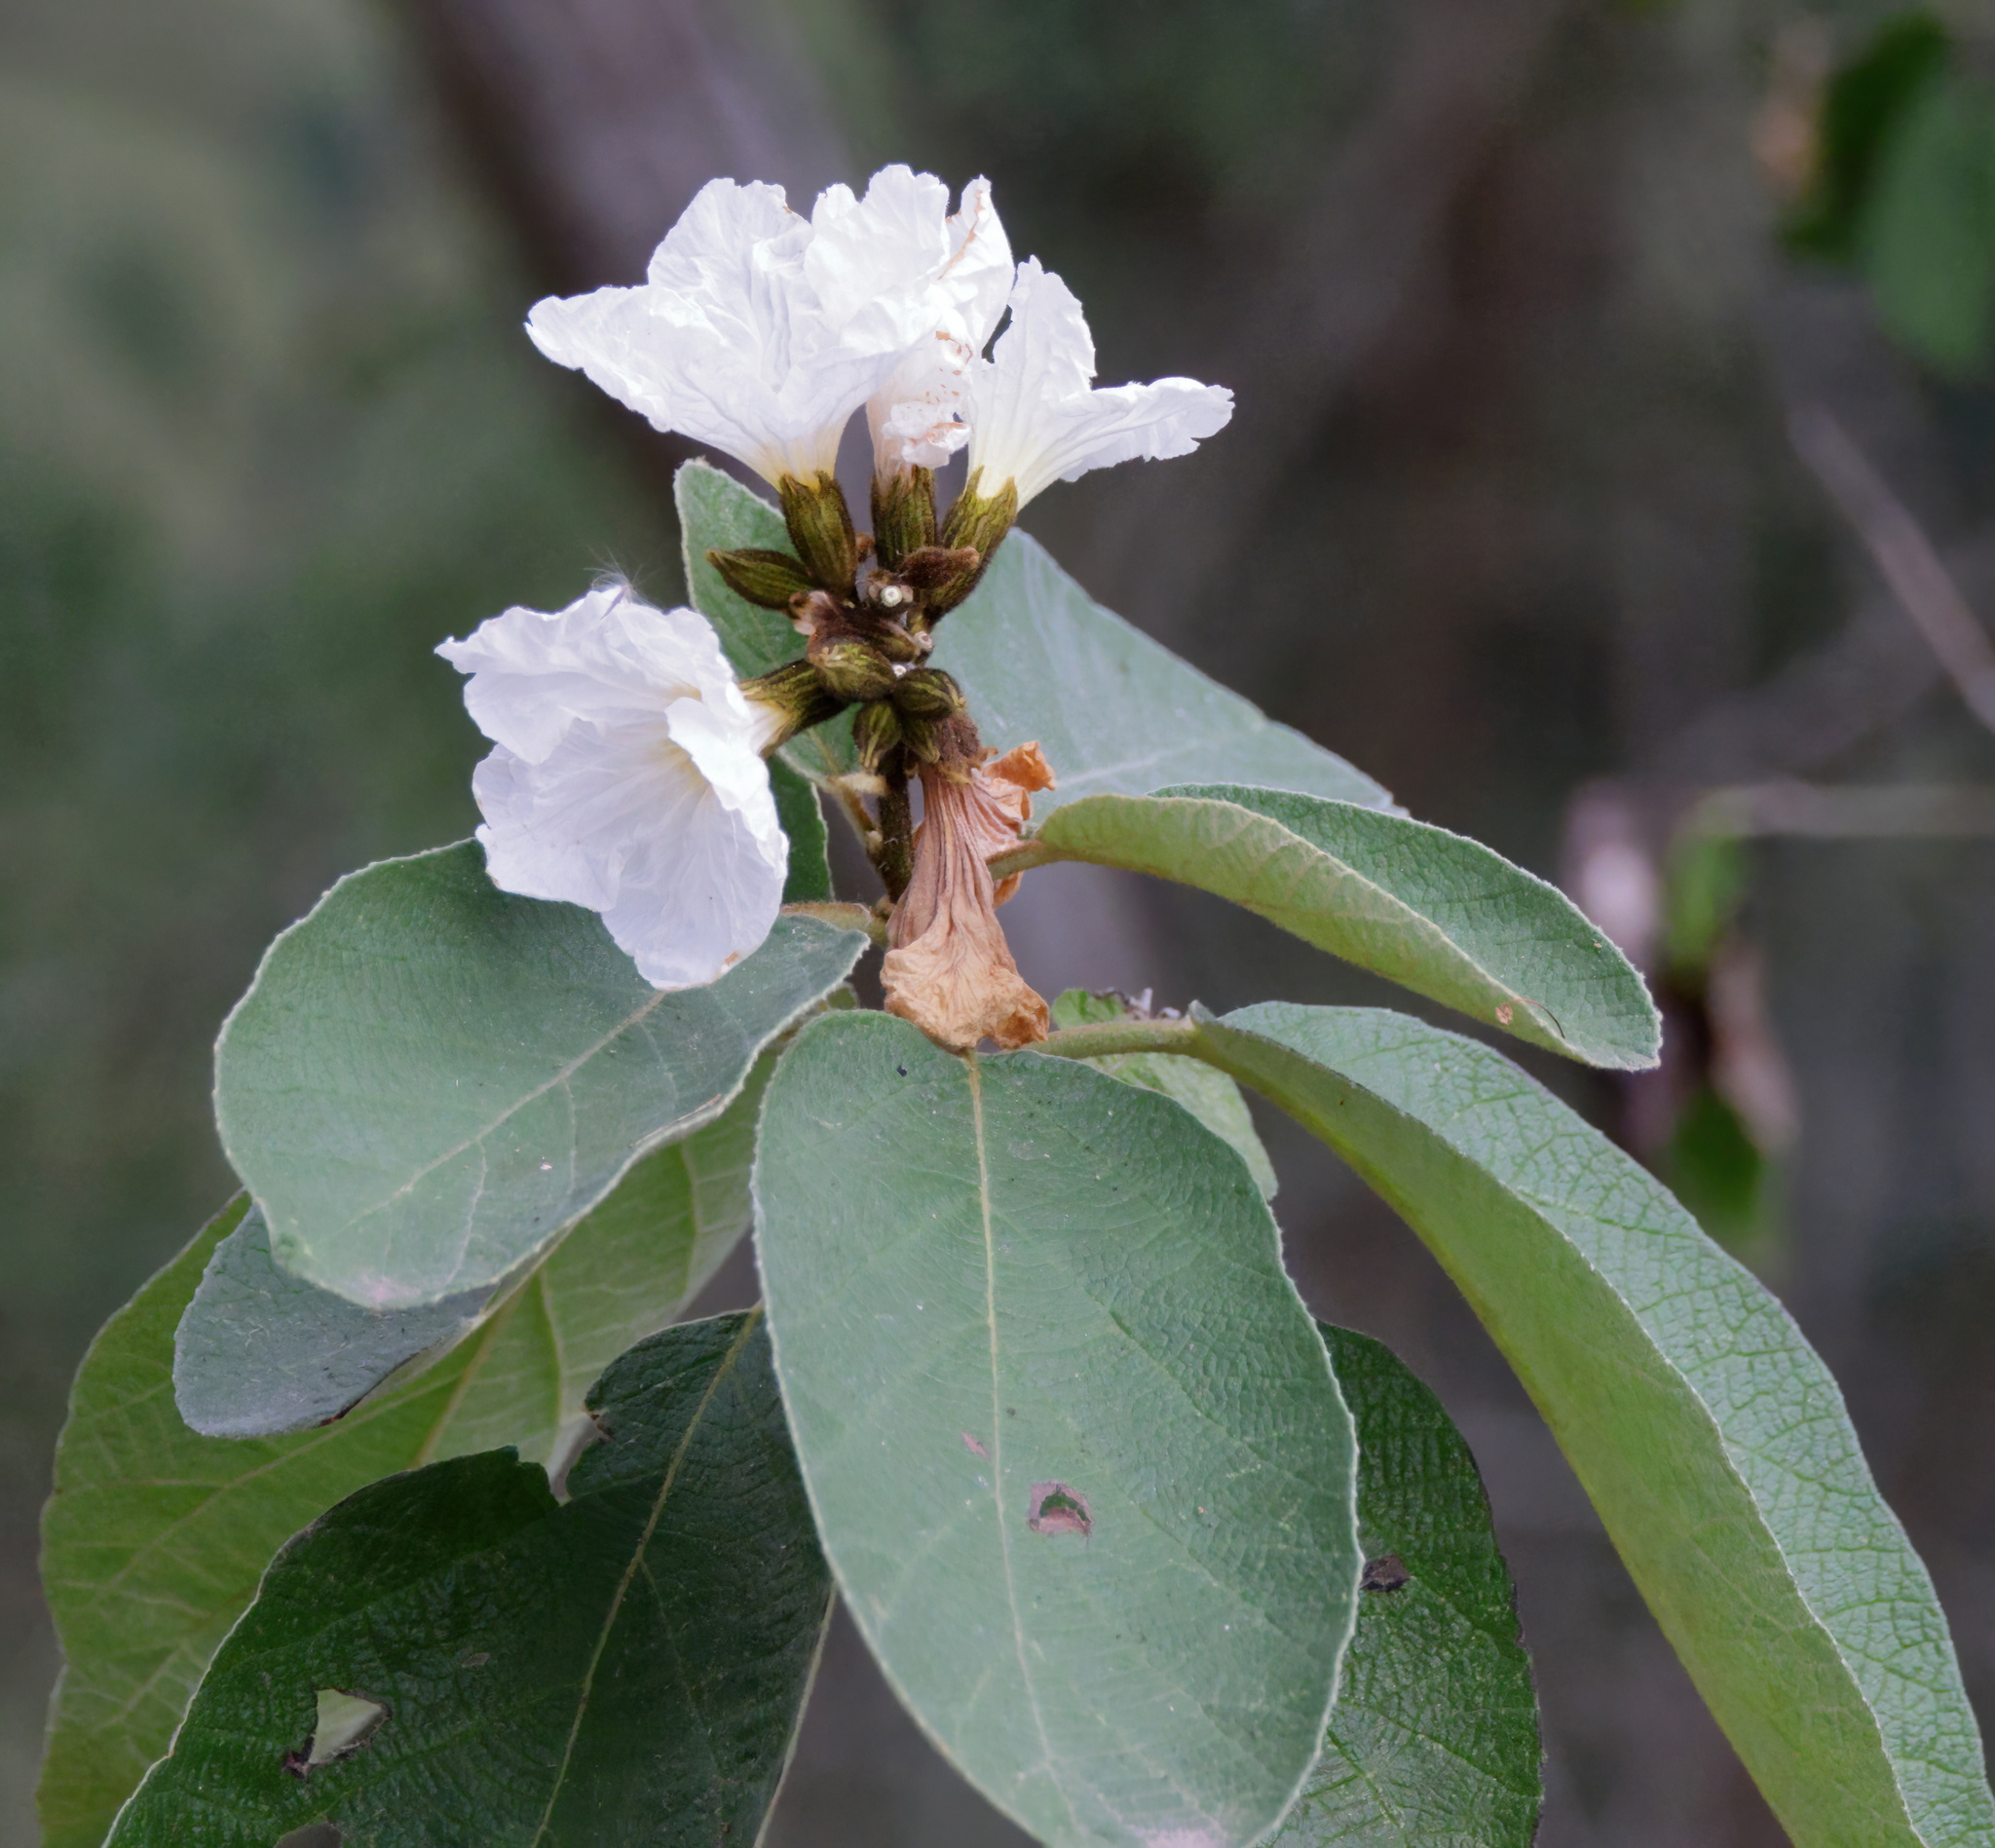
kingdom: Plantae
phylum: Tracheophyta
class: Magnoliopsida
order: Boraginales
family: Cordiaceae
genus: Cordia
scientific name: Cordia boissieri
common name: Mexican-olive
